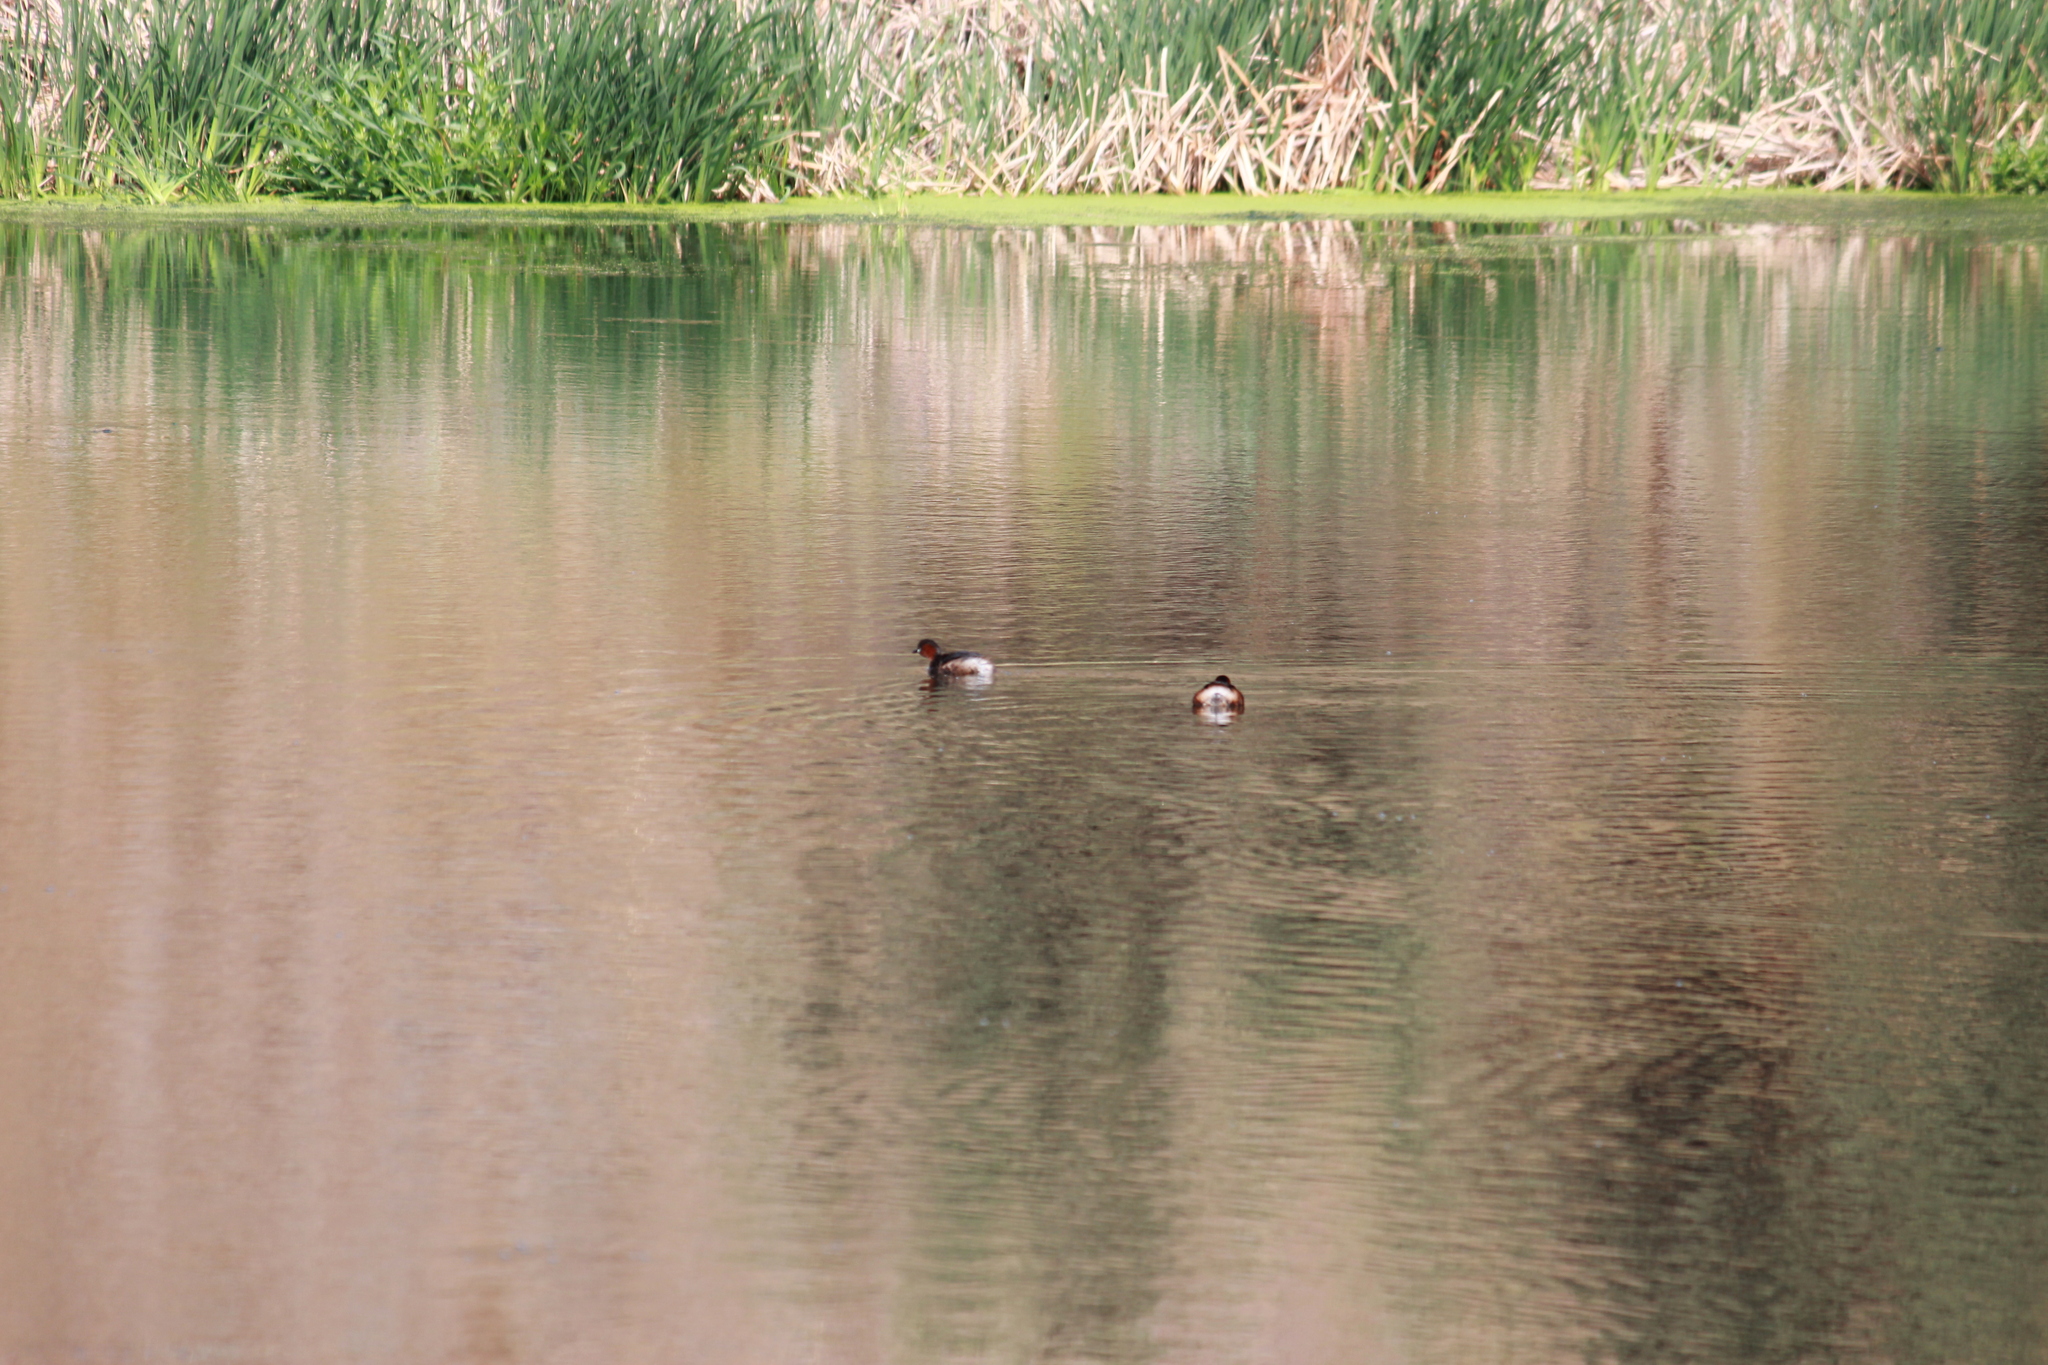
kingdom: Animalia
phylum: Chordata
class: Aves
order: Podicipediformes
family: Podicipedidae
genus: Tachybaptus
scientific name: Tachybaptus ruficollis
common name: Little grebe
